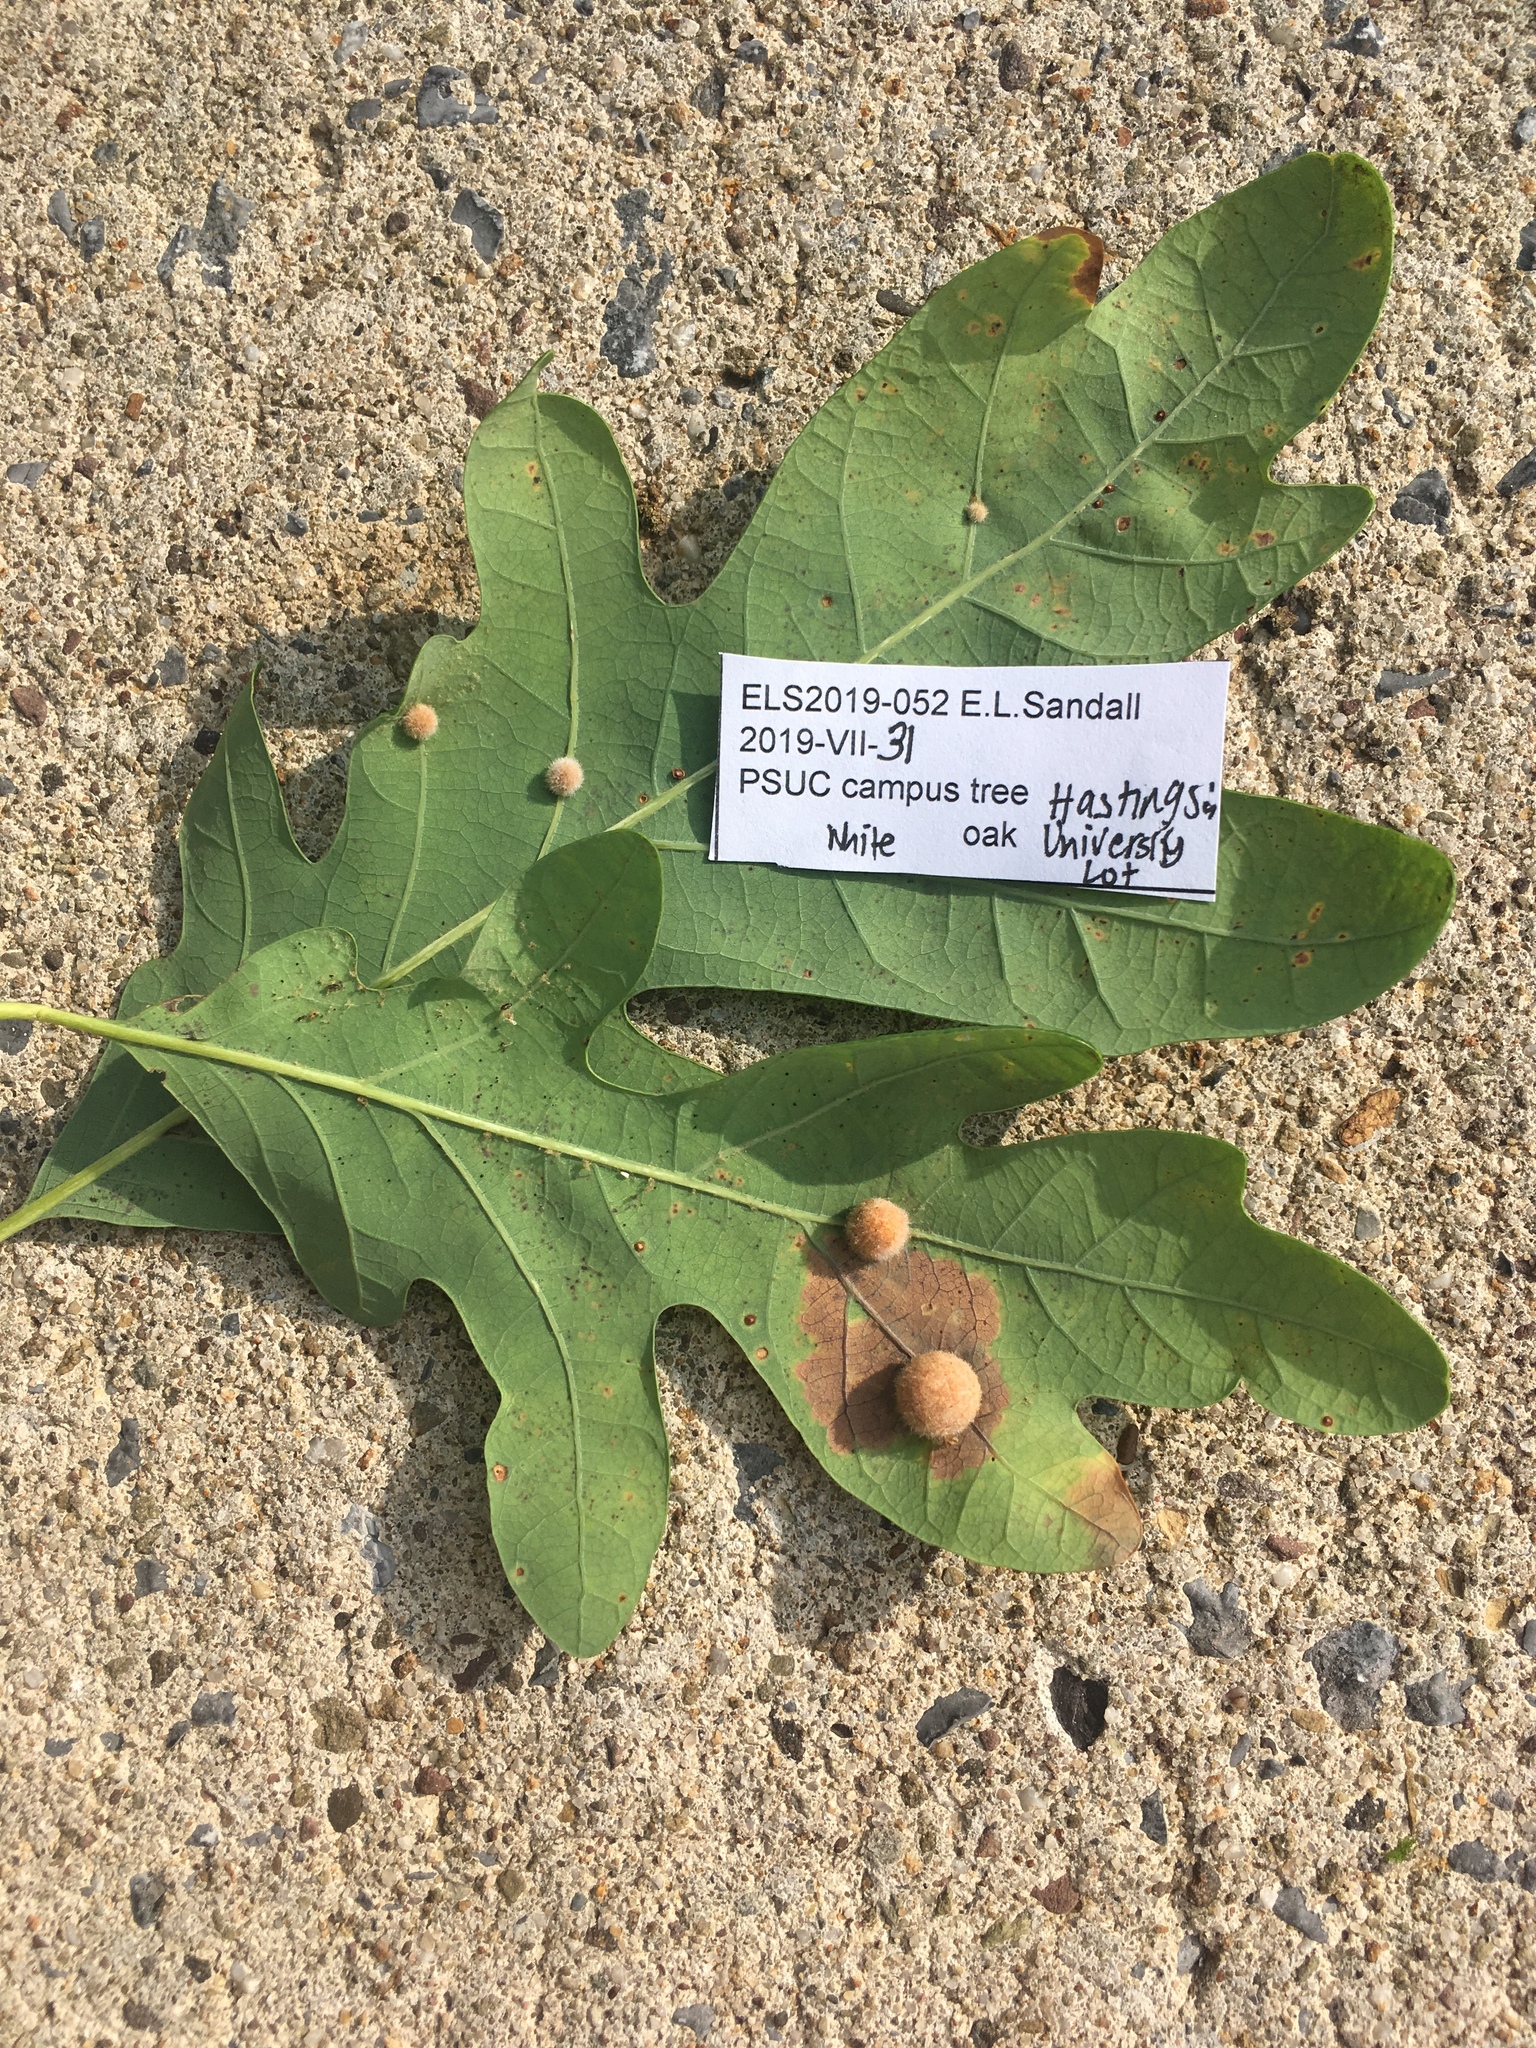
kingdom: Animalia
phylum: Arthropoda
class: Insecta
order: Hymenoptera
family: Cynipidae
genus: Philonix
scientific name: Philonix fulvicollis
